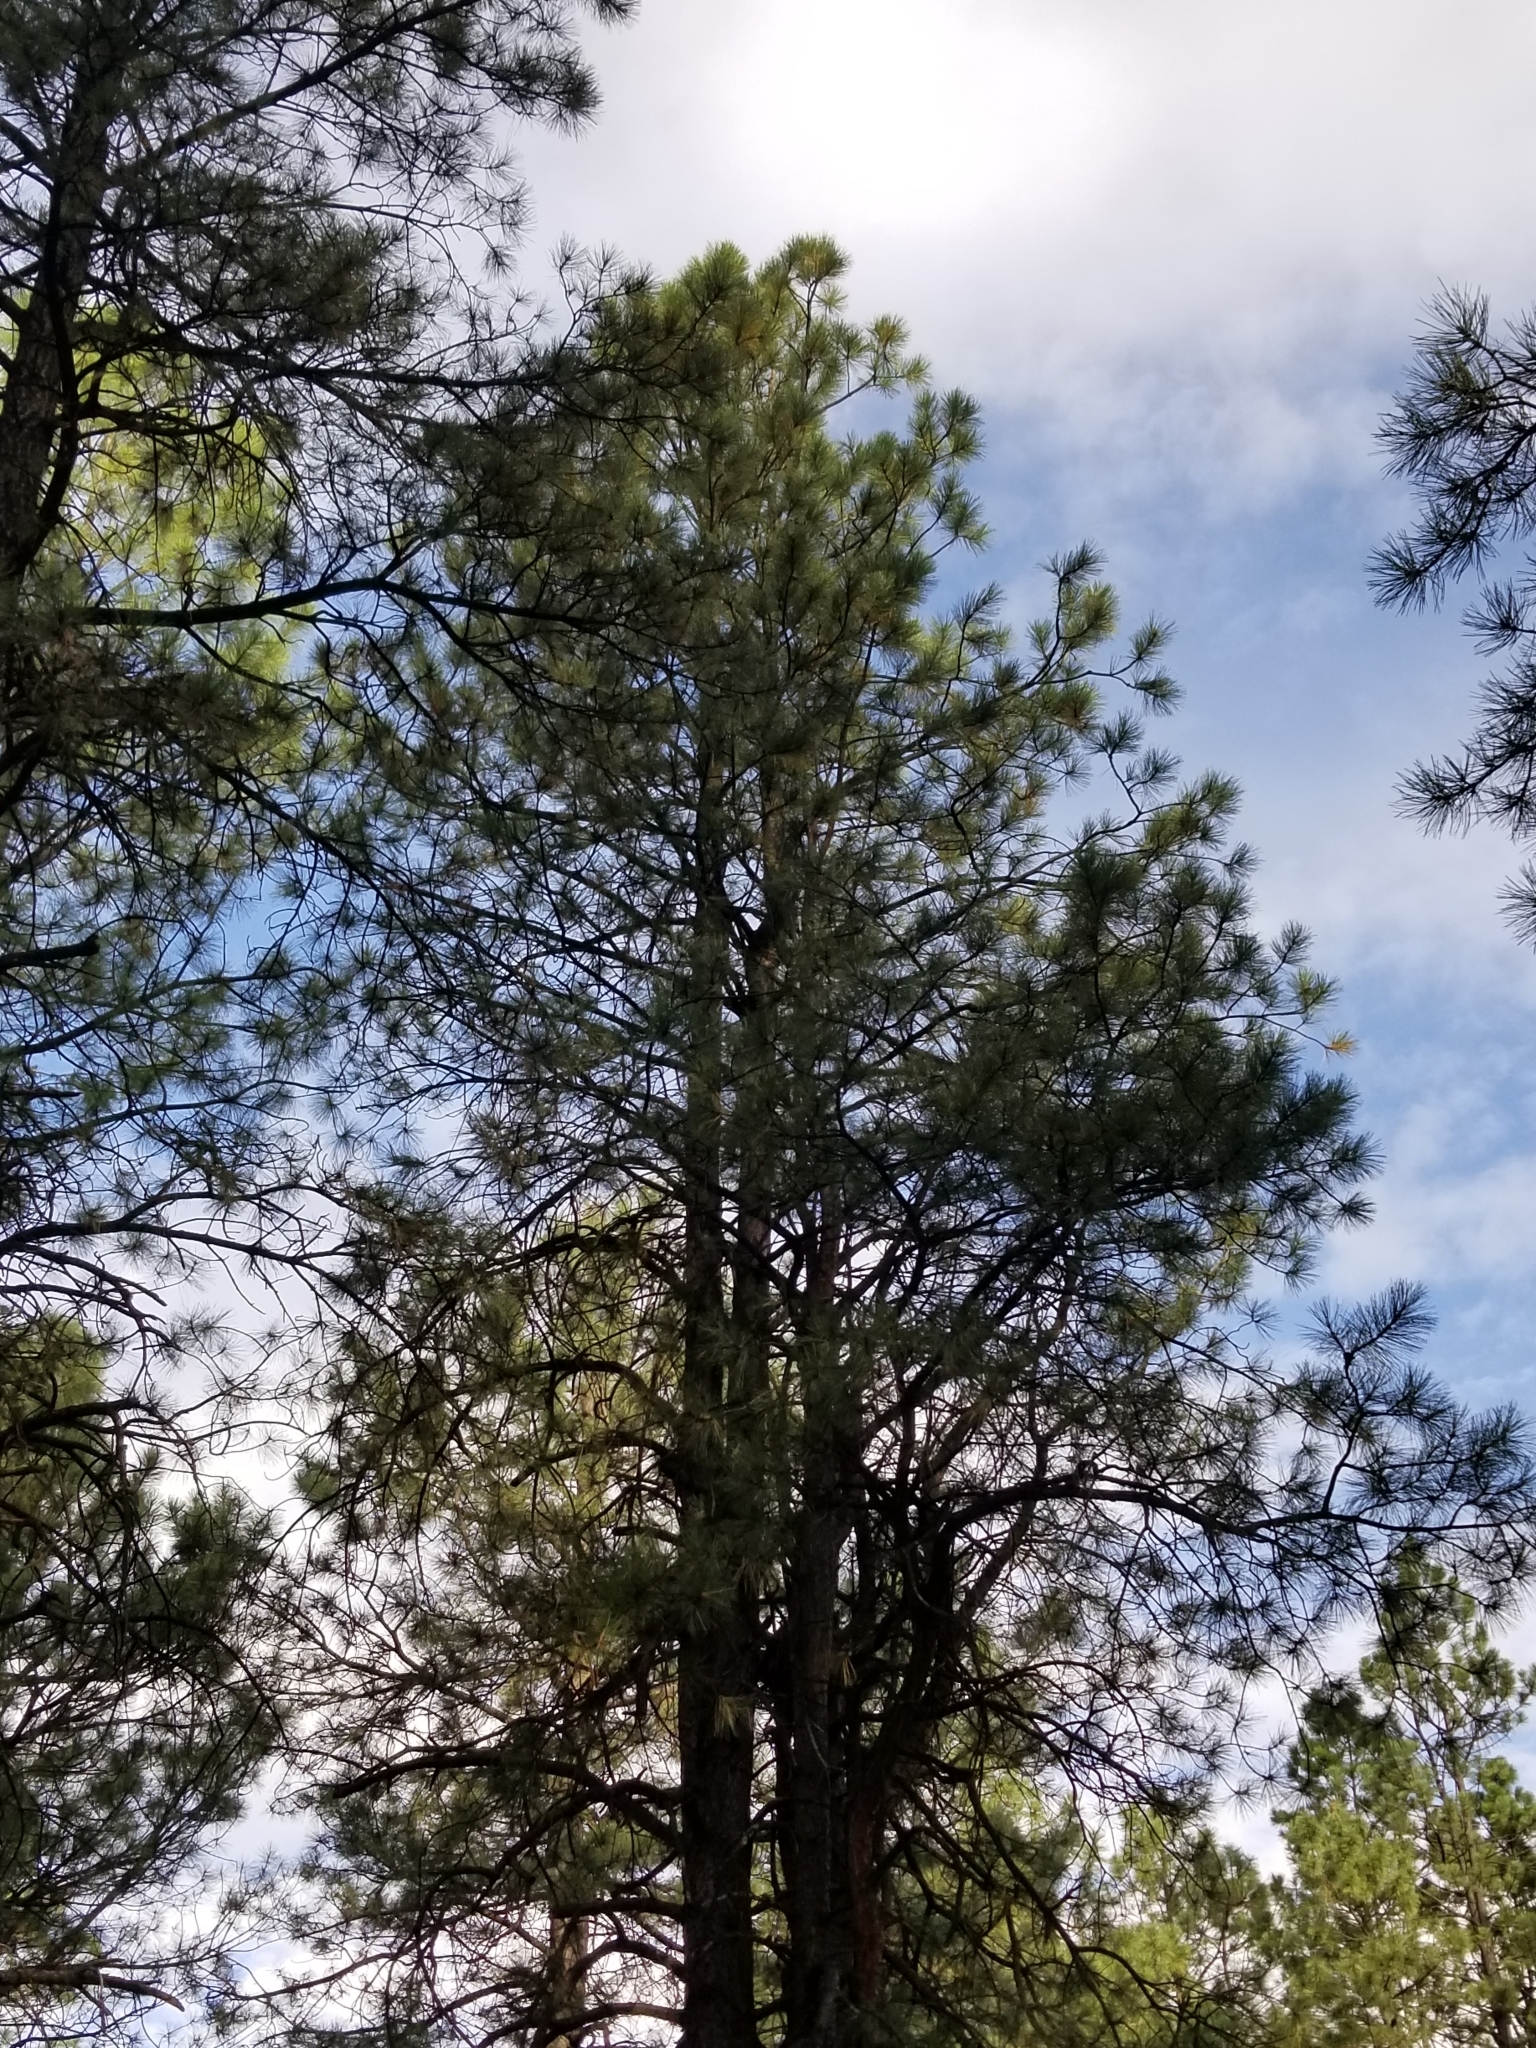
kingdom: Plantae
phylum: Tracheophyta
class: Pinopsida
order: Pinales
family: Pinaceae
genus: Pinus
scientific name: Pinus ponderosa
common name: Western yellow-pine
